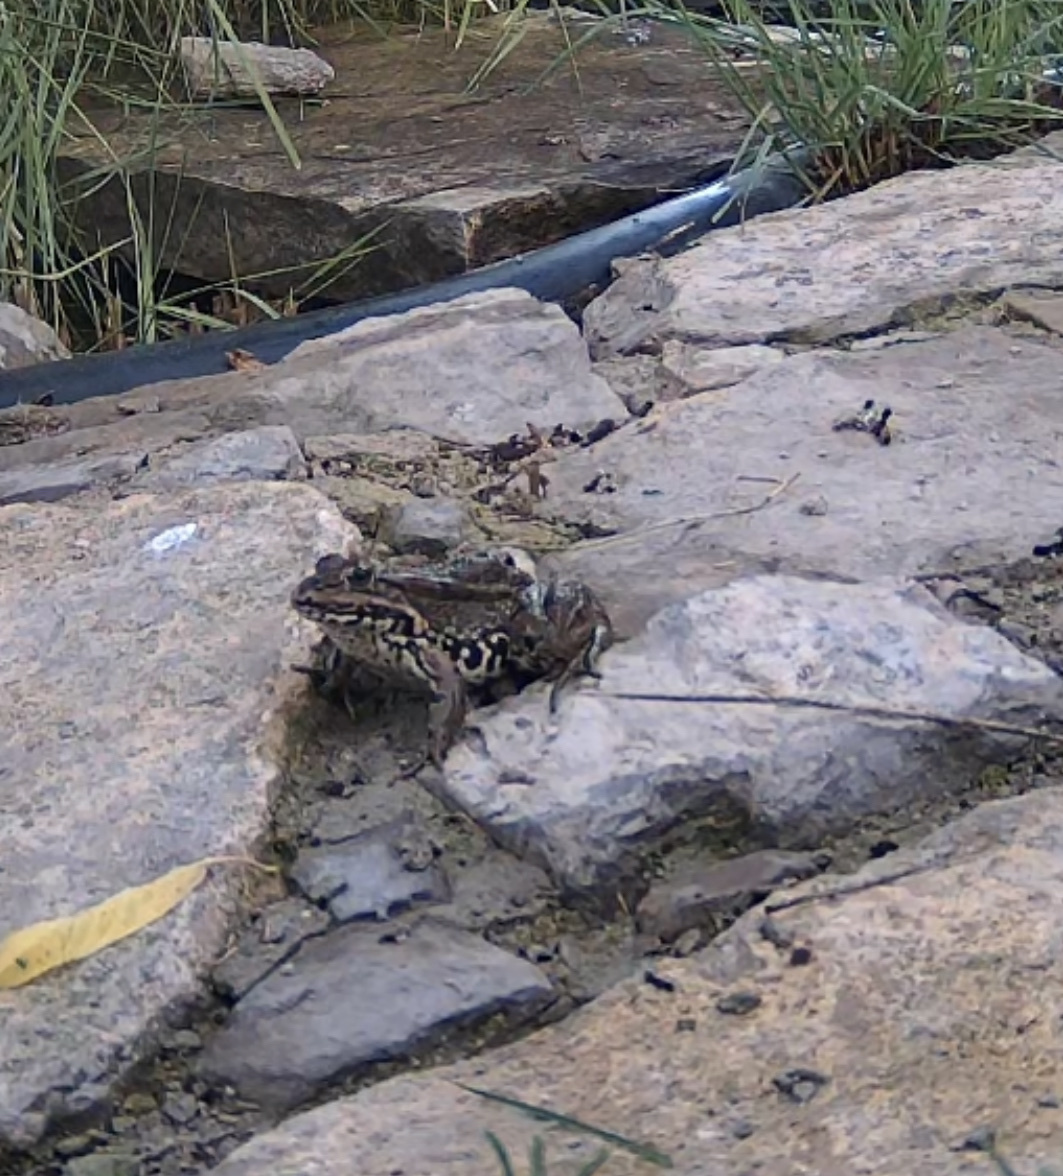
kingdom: Animalia
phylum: Chordata
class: Amphibia
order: Anura
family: Ranidae
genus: Pelophylax
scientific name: Pelophylax perezi
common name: Perez's frog
